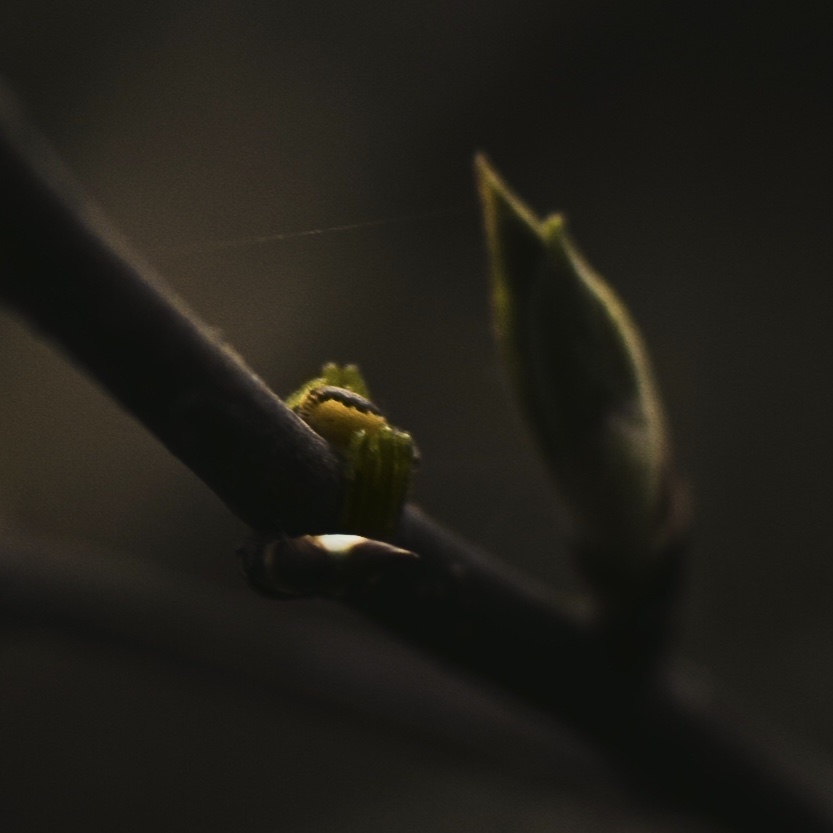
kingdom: Animalia
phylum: Arthropoda
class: Arachnida
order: Araneae
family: Thomisidae
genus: Diaea
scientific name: Diaea
